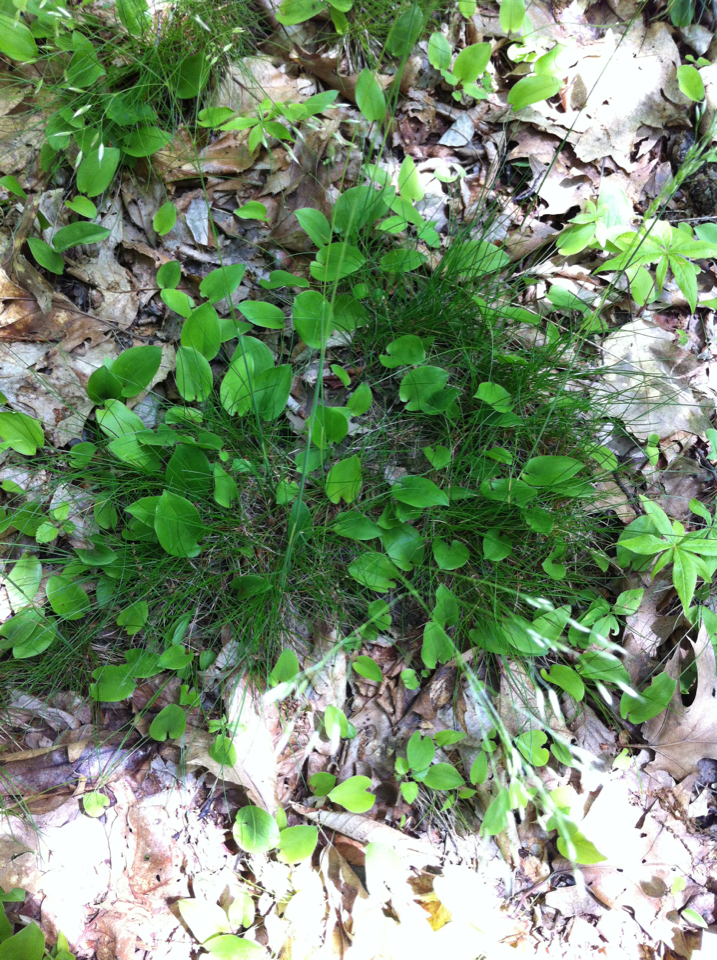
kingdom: Plantae
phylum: Tracheophyta
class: Liliopsida
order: Poales
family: Poaceae
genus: Avenella
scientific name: Avenella flexuosa
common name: Wavy hairgrass
